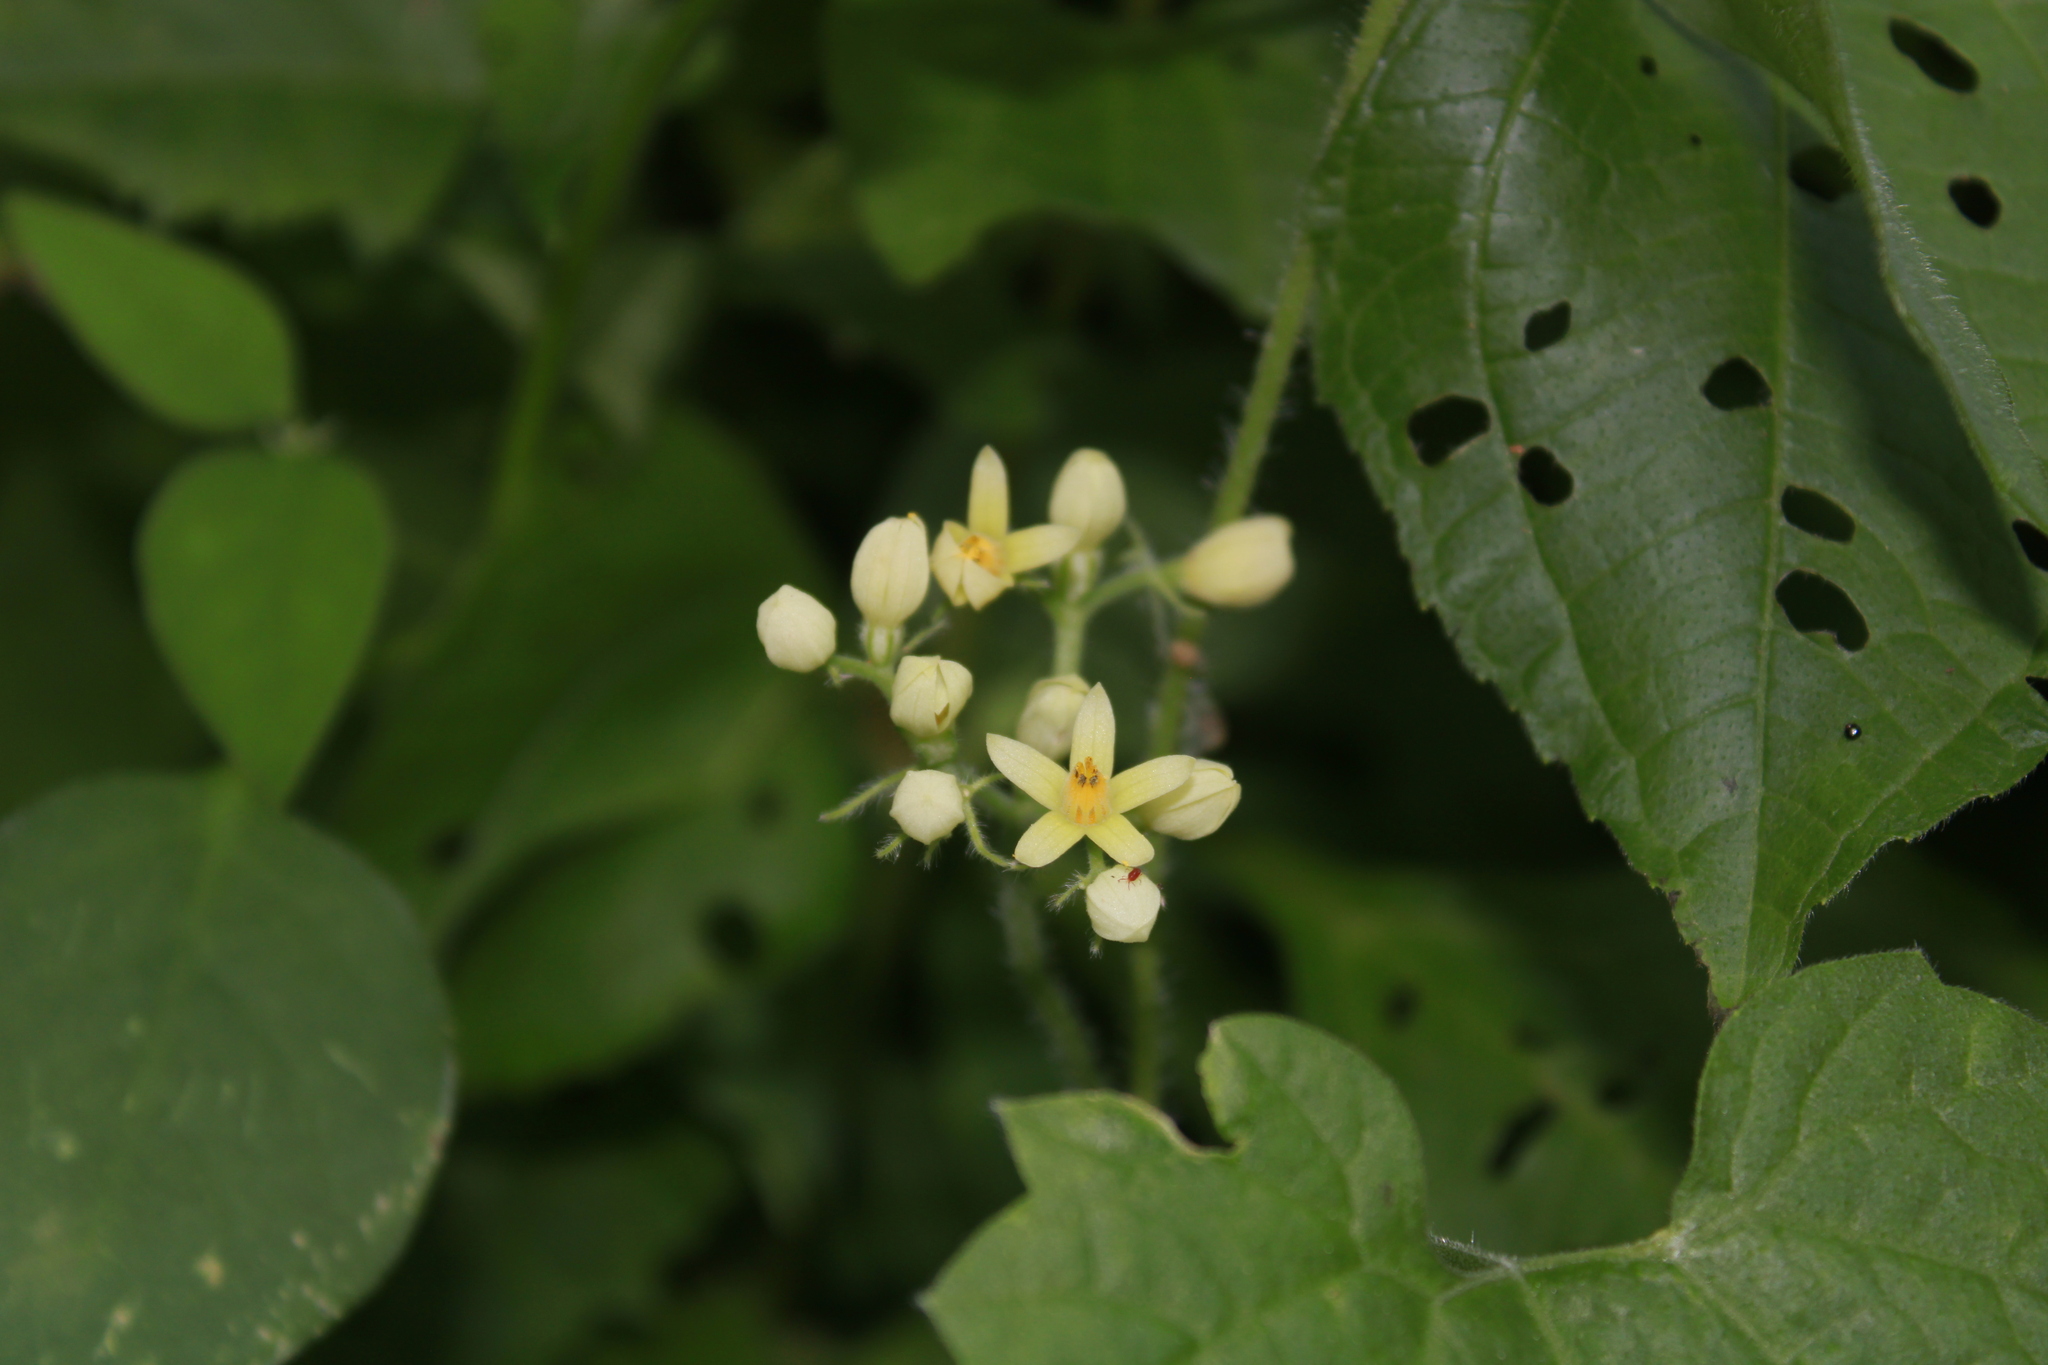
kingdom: Plantae
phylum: Tracheophyta
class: Magnoliopsida
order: Cornales
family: Loasaceae
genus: Gronovia
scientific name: Gronovia scandens
